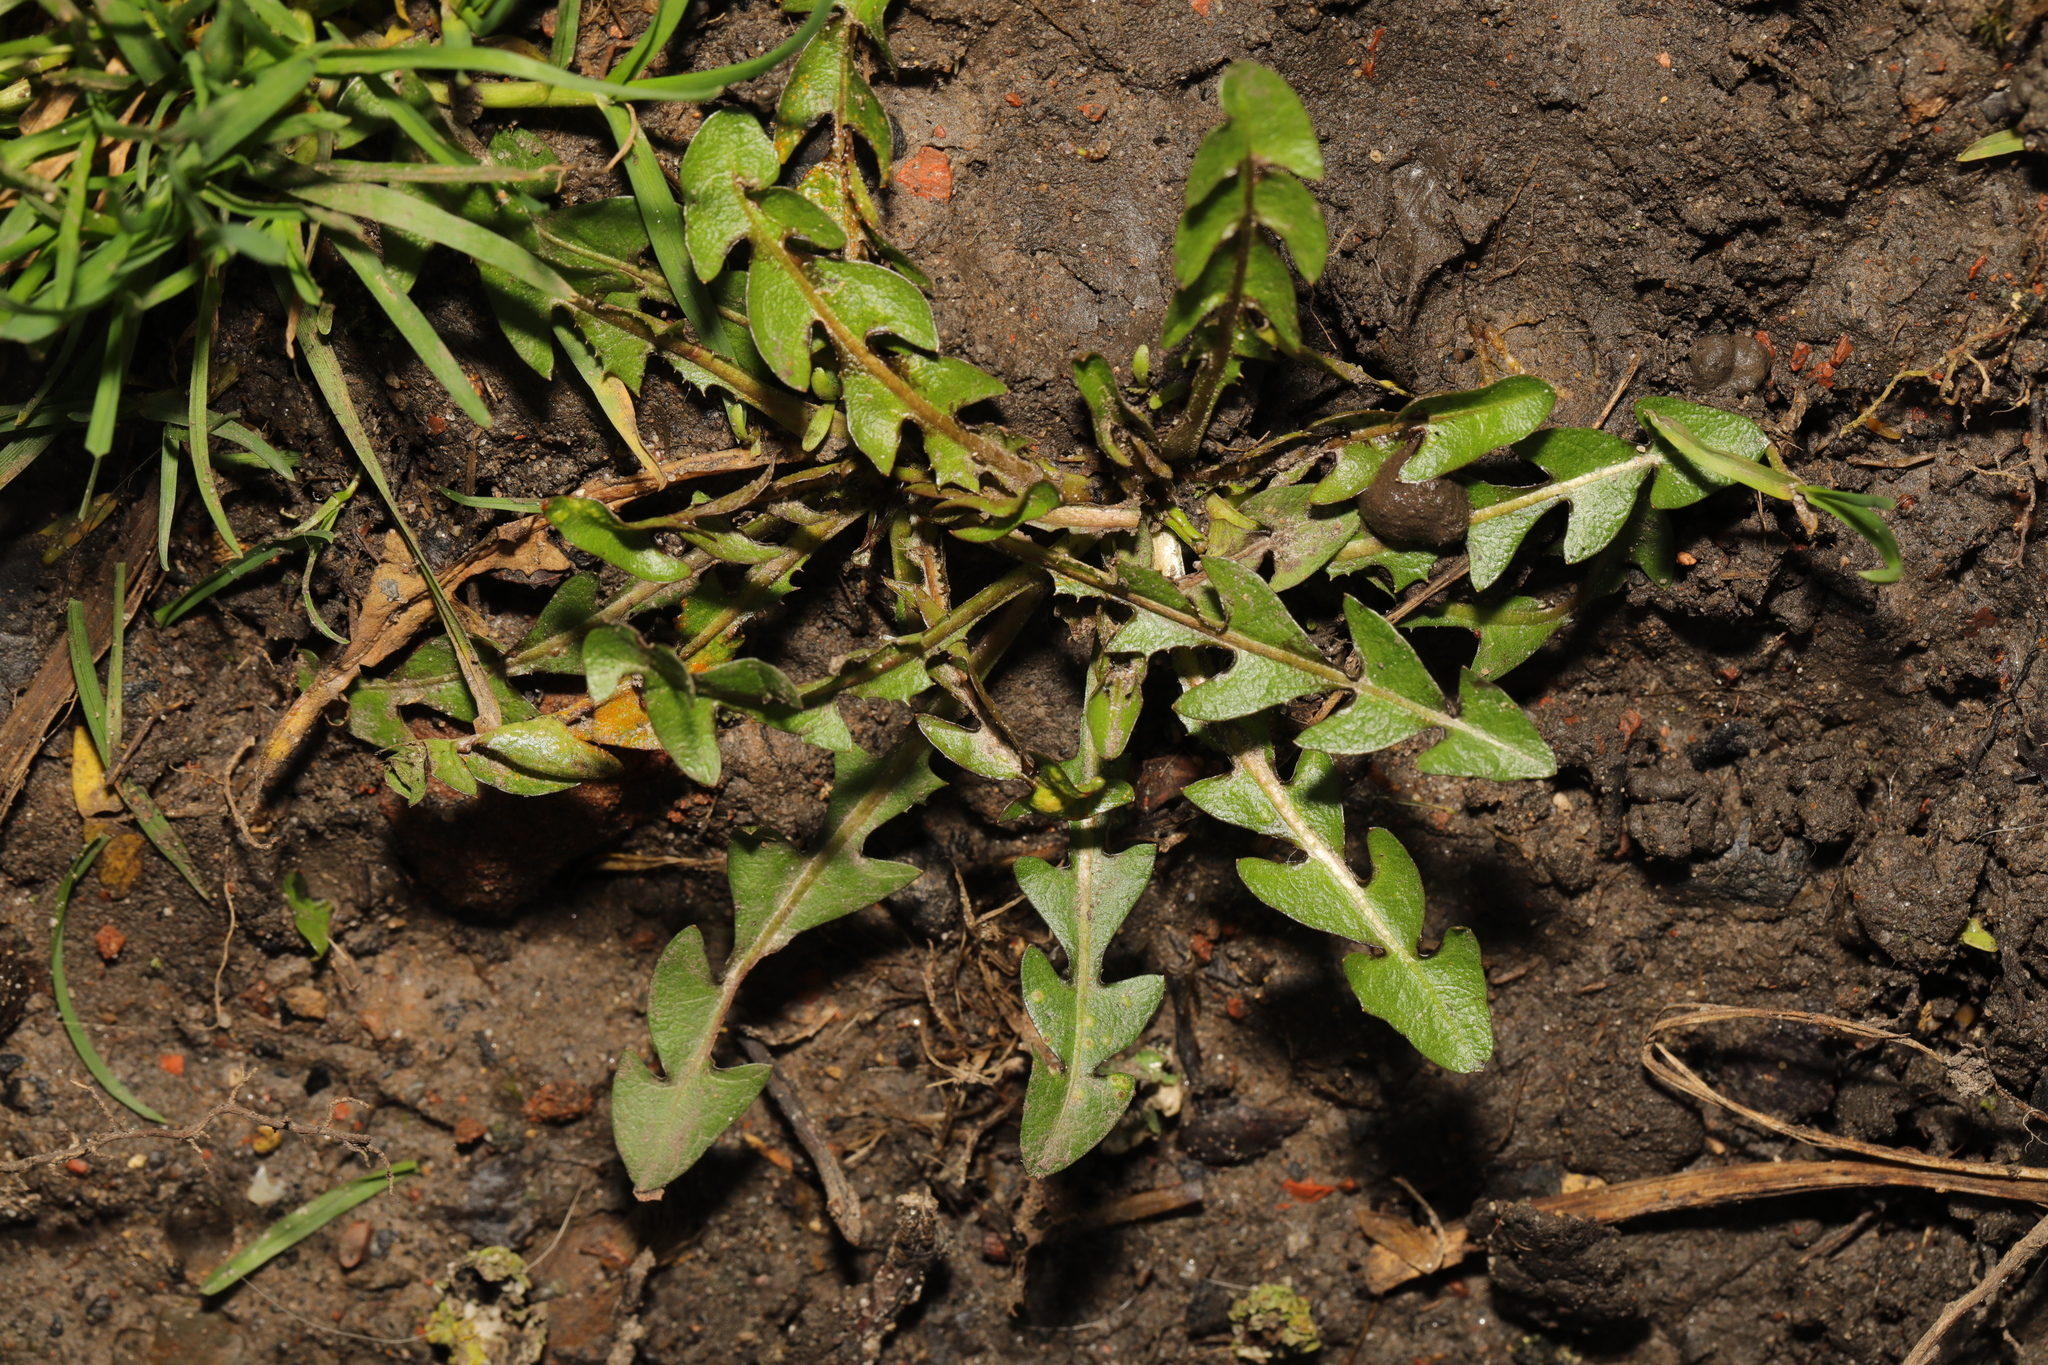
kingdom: Plantae
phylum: Tracheophyta
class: Magnoliopsida
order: Asterales
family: Asteraceae
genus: Taraxacum
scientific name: Taraxacum officinale
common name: Common dandelion
